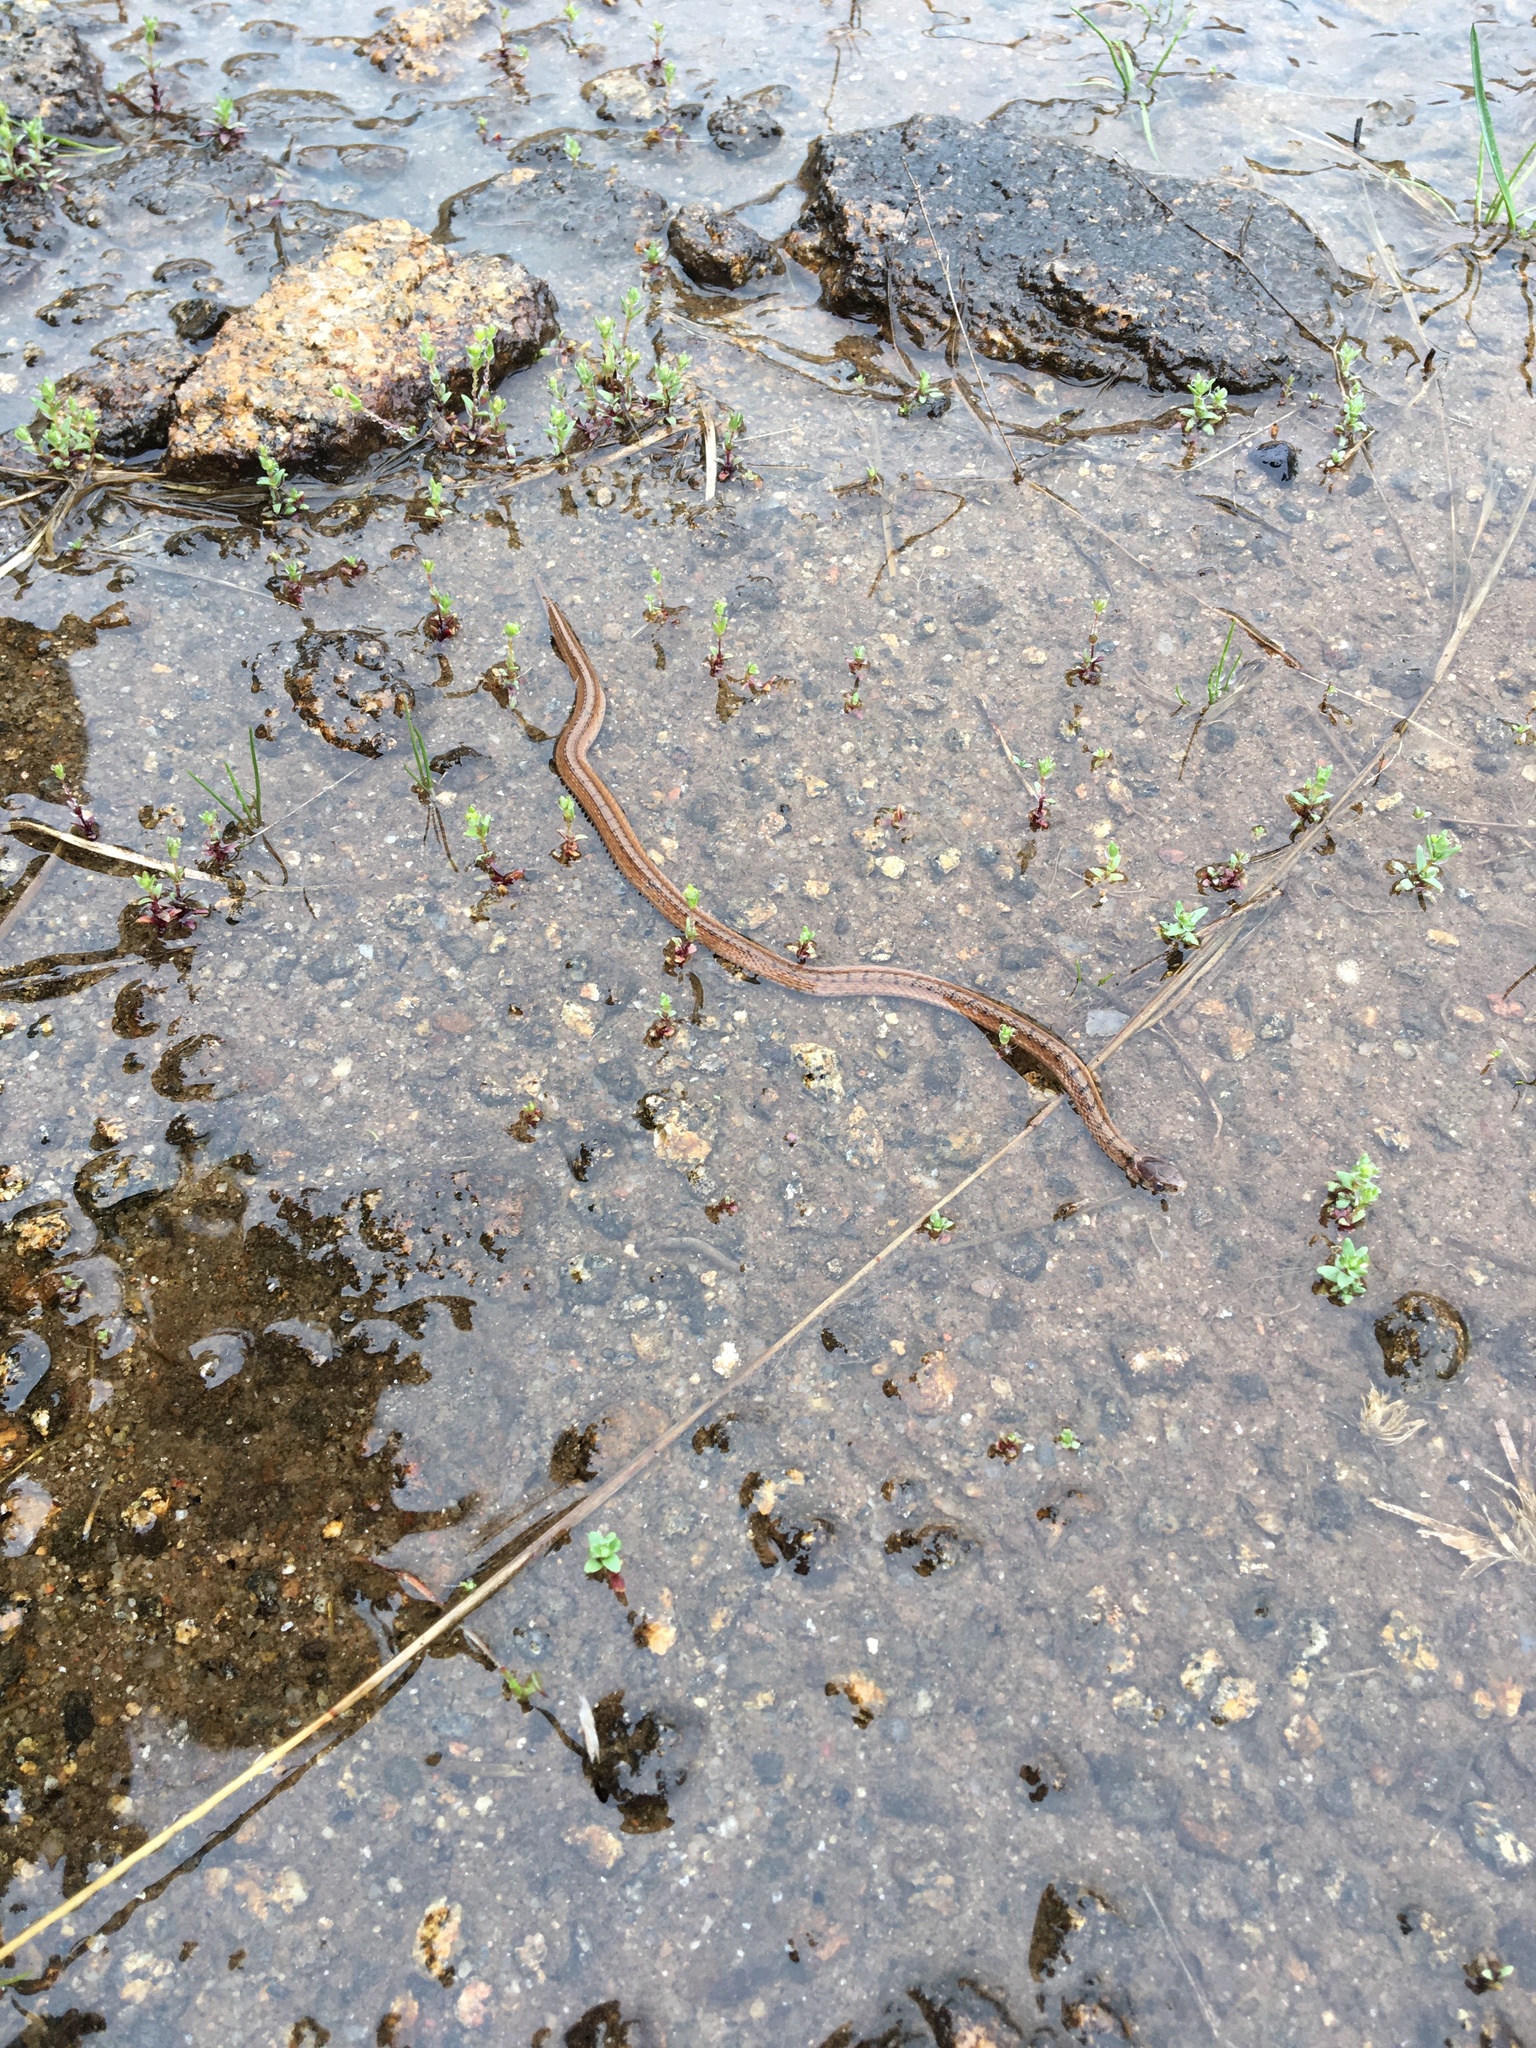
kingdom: Animalia
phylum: Chordata
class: Squamata
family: Colubridae
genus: Storeria
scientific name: Storeria dekayi
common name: (dekay’s) brown snake
